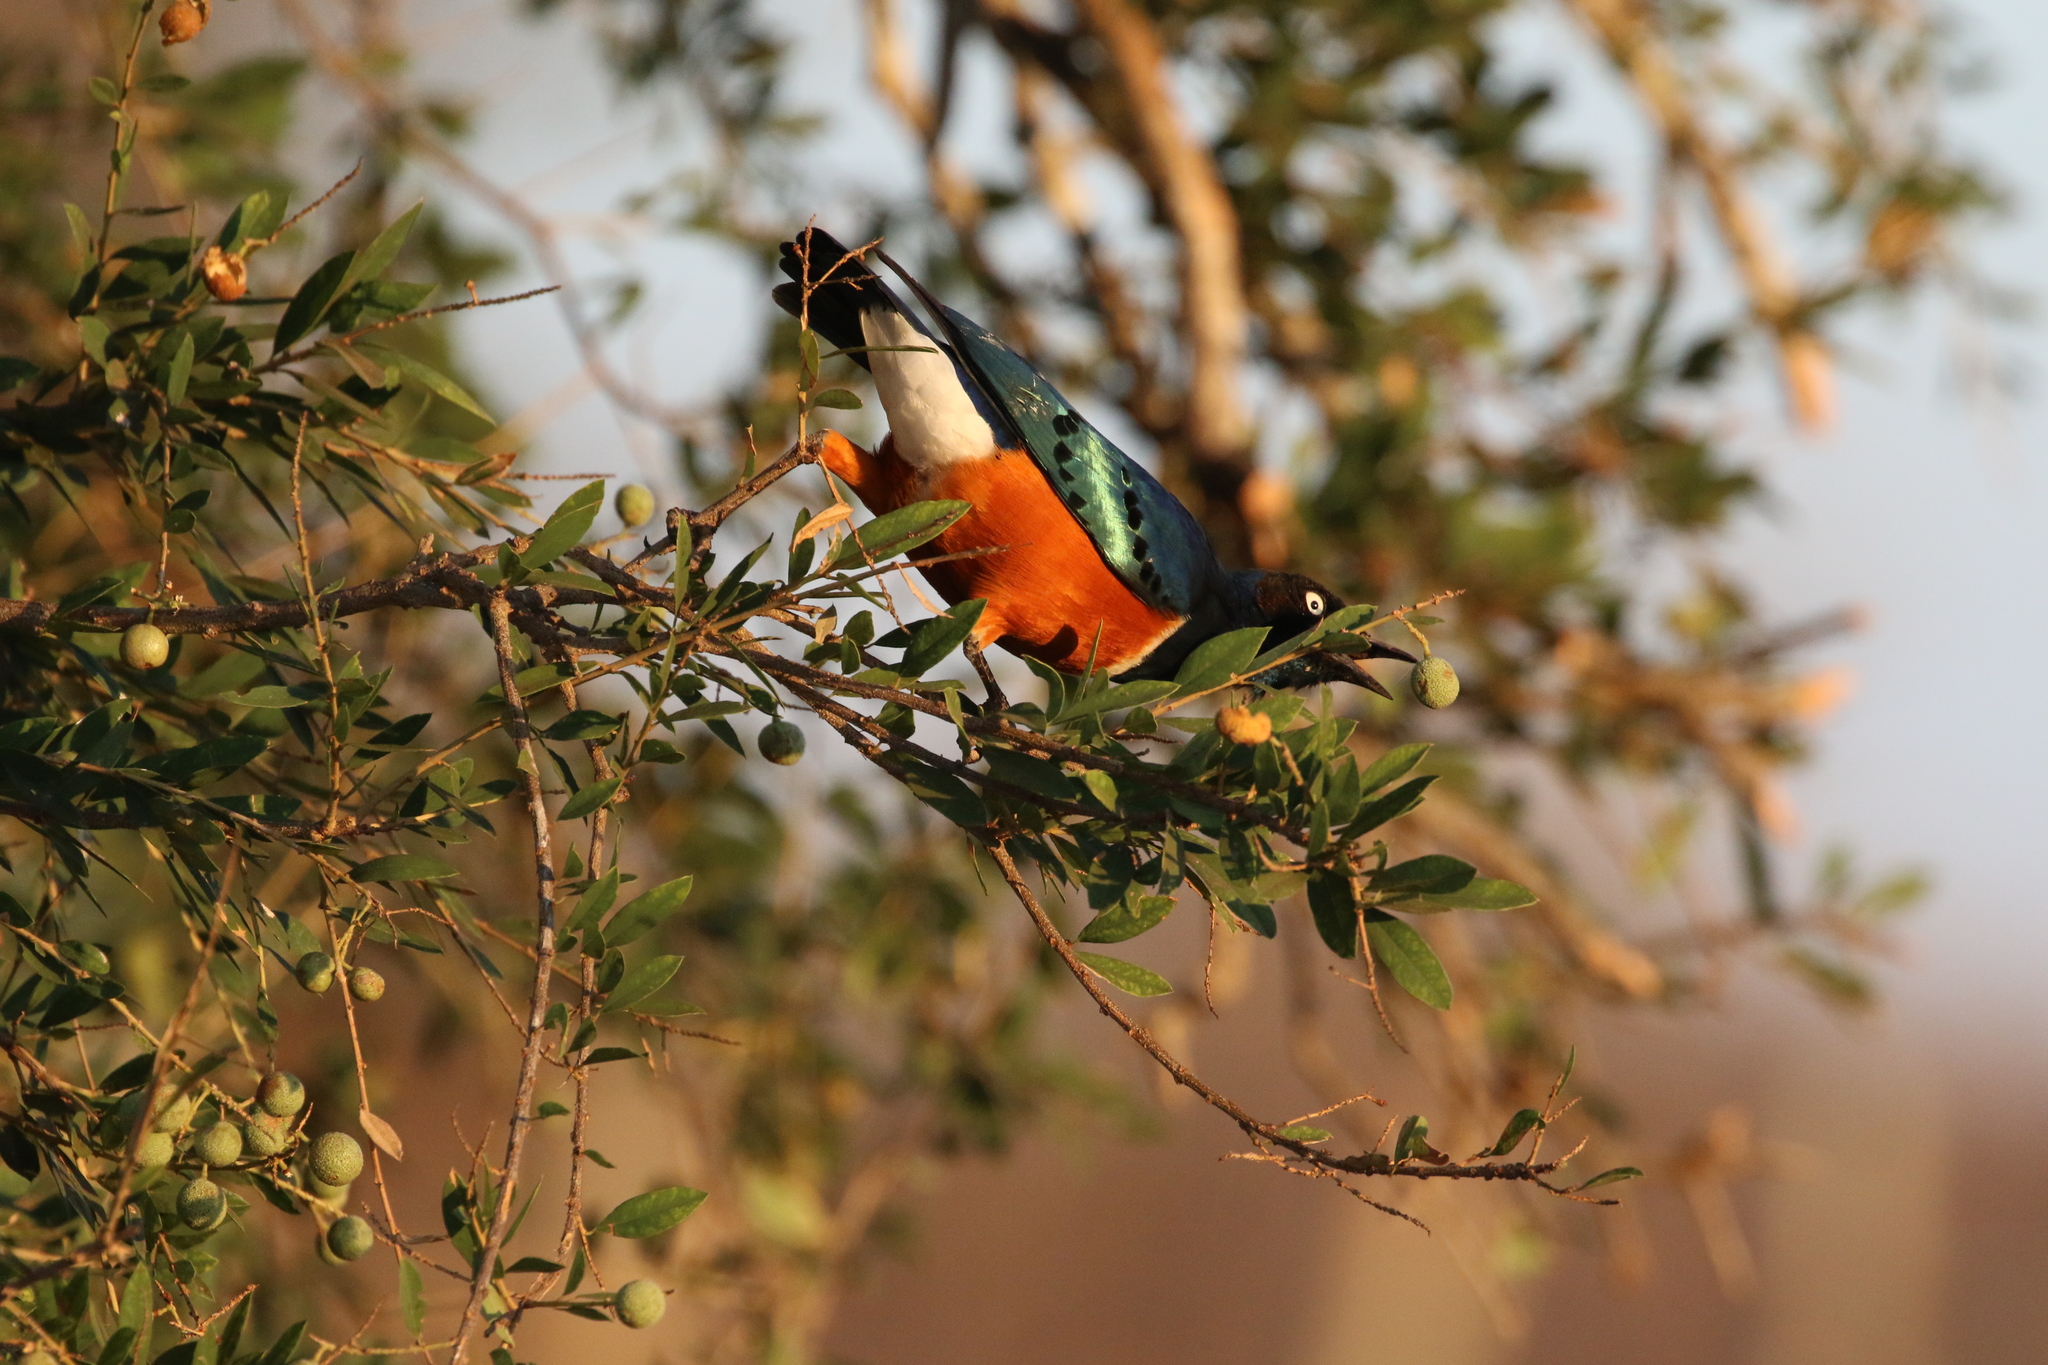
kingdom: Animalia
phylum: Chordata
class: Aves
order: Passeriformes
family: Sturnidae
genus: Lamprotornis
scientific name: Lamprotornis superbus
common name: Superb starling
